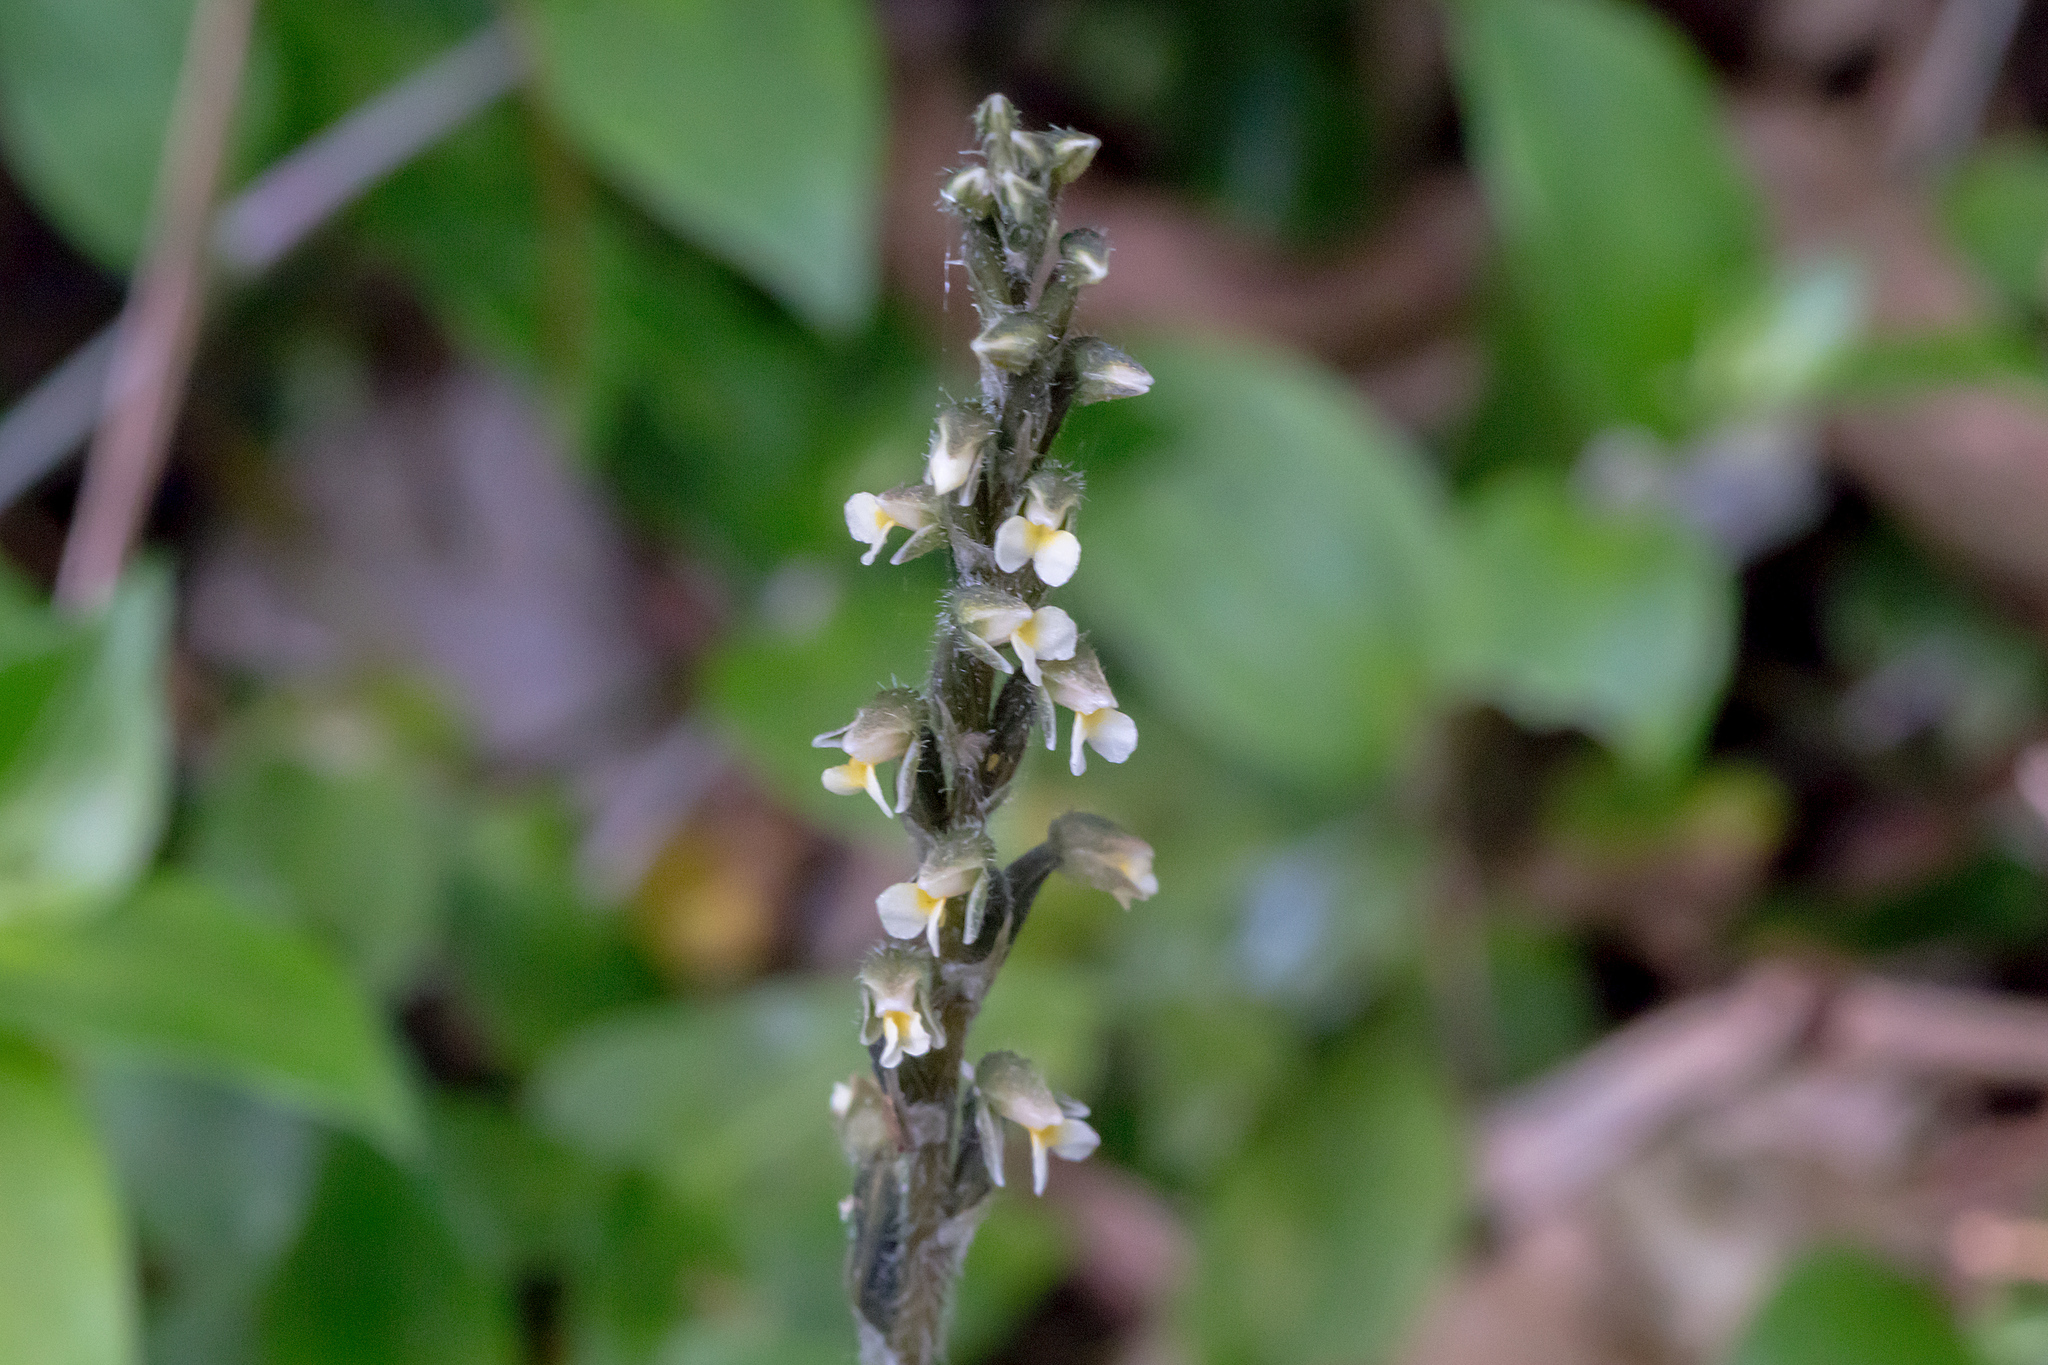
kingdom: Plantae
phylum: Tracheophyta
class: Liliopsida
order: Asparagales
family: Orchidaceae
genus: Zeuxine
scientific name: Zeuxine oblonga
